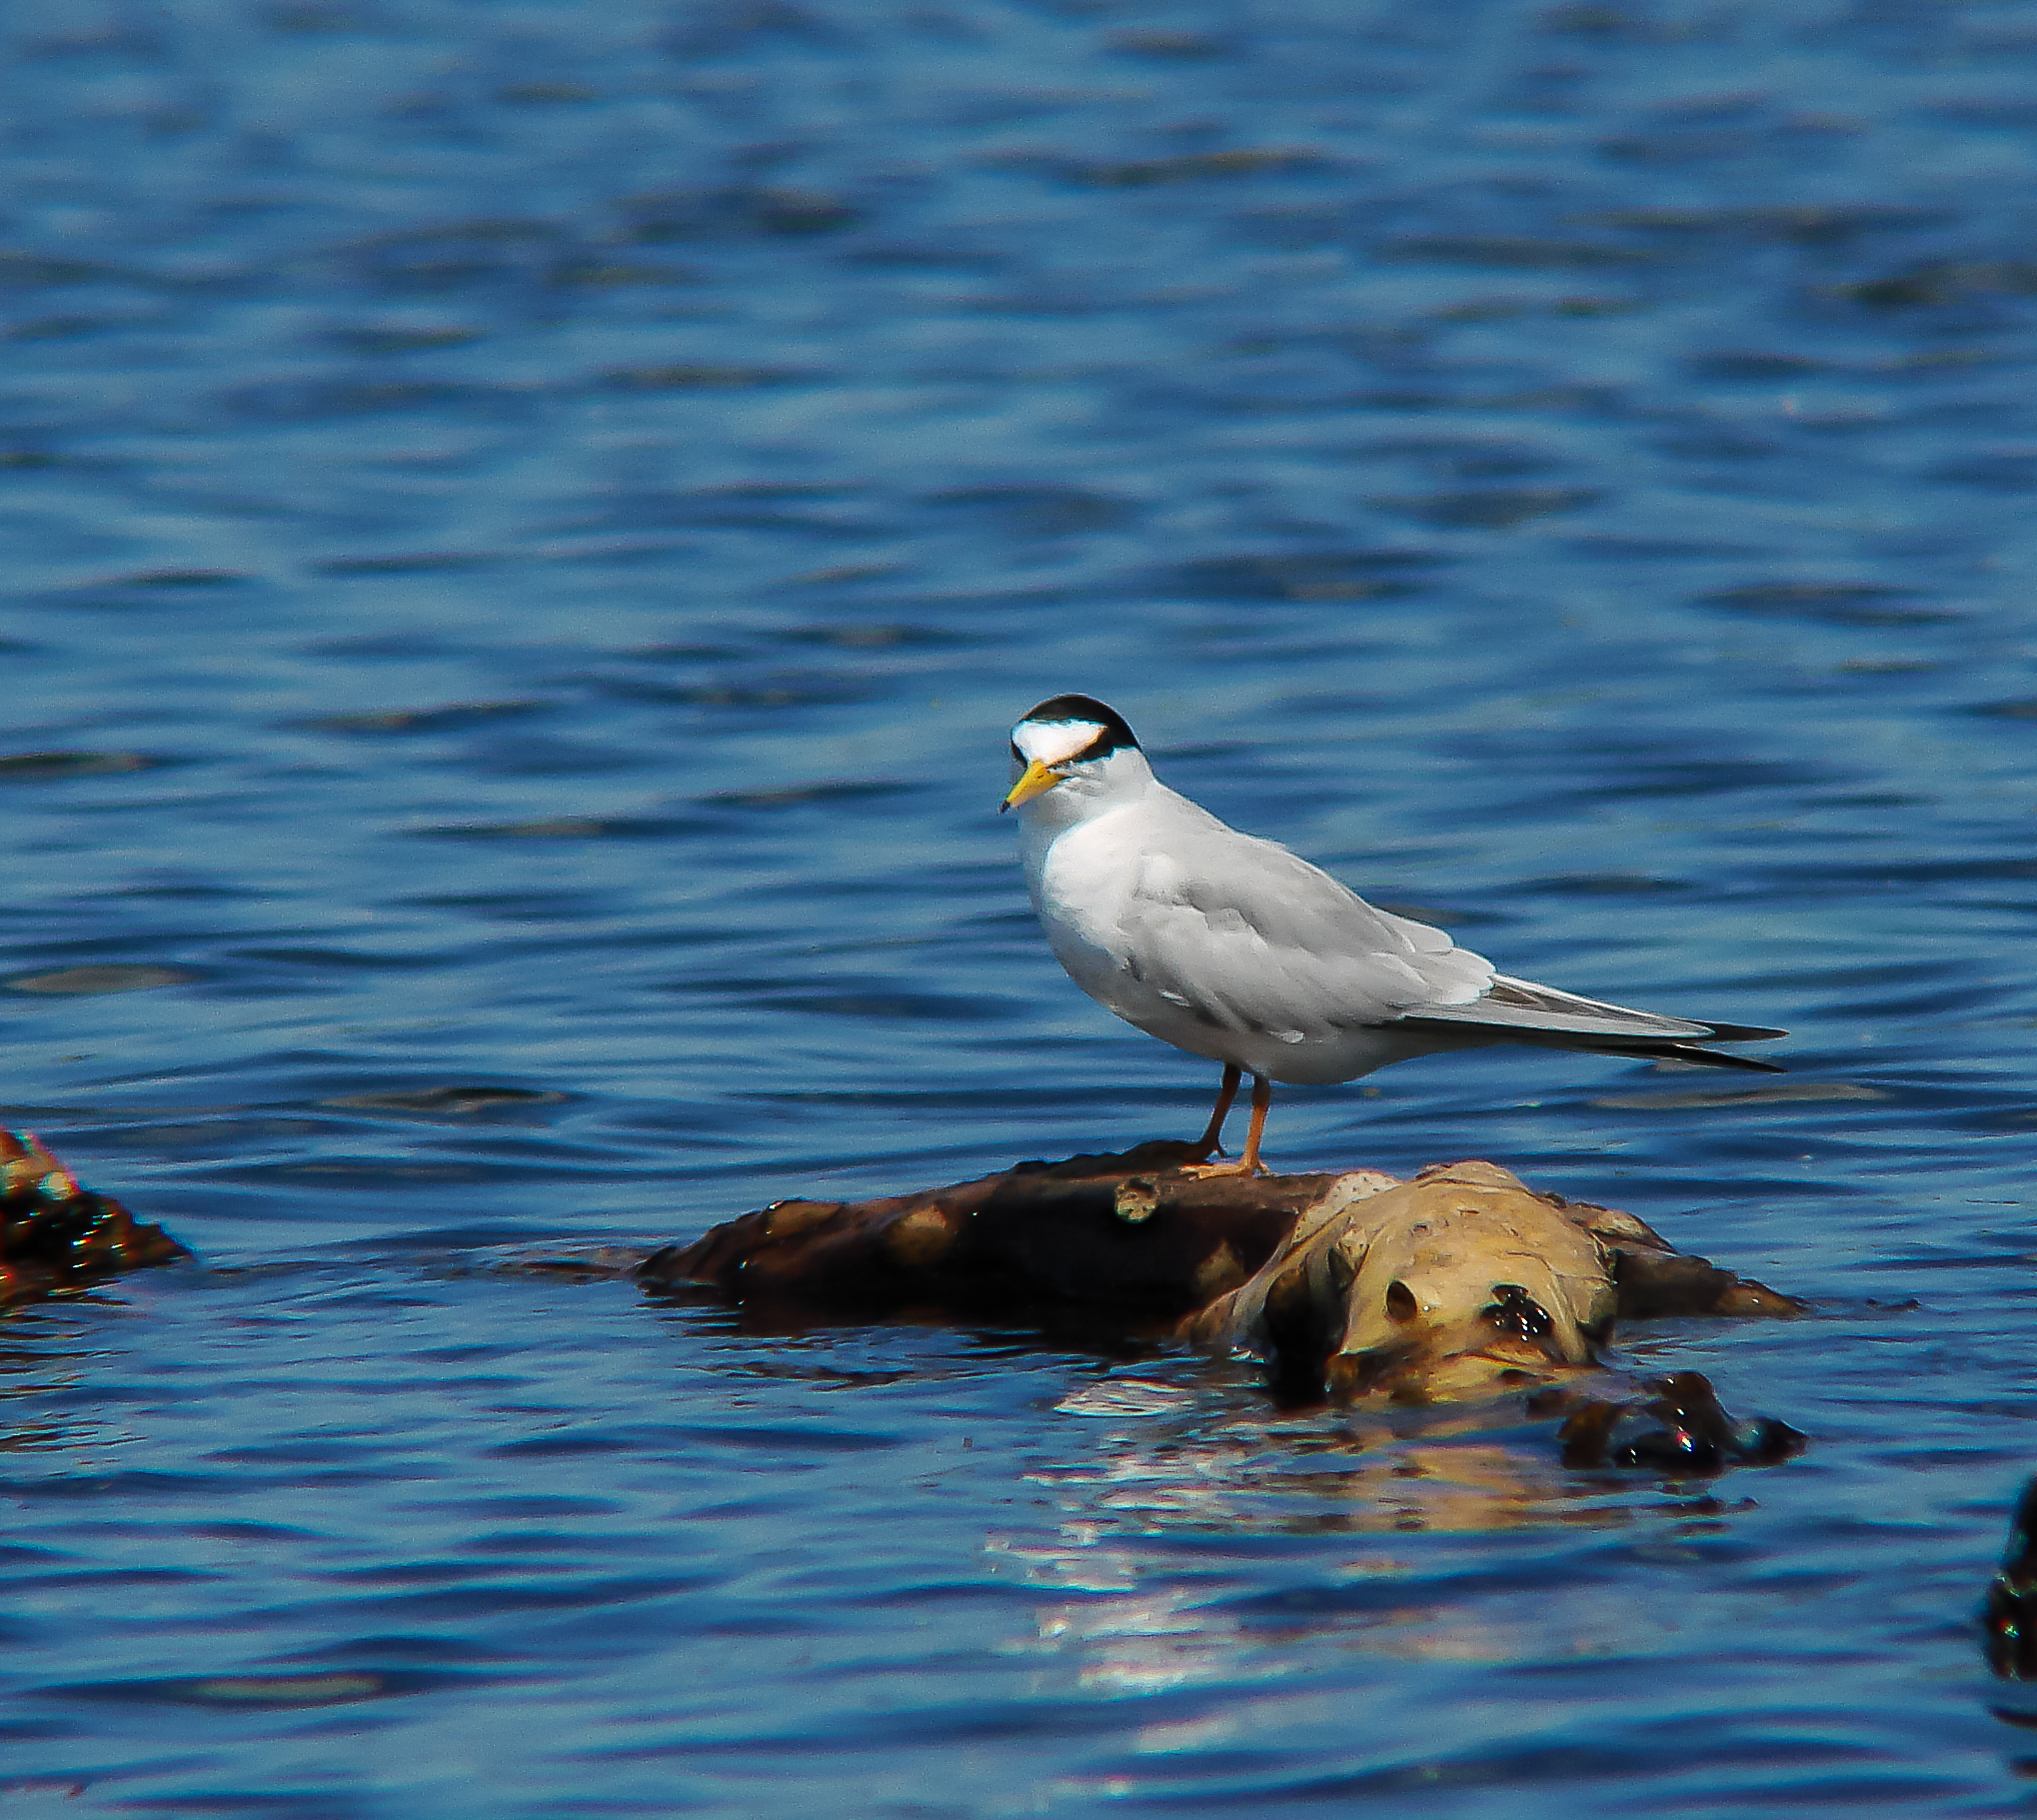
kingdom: Animalia
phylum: Chordata
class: Aves
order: Charadriiformes
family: Laridae
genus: Sternula
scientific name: Sternula albifrons
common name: Little tern
